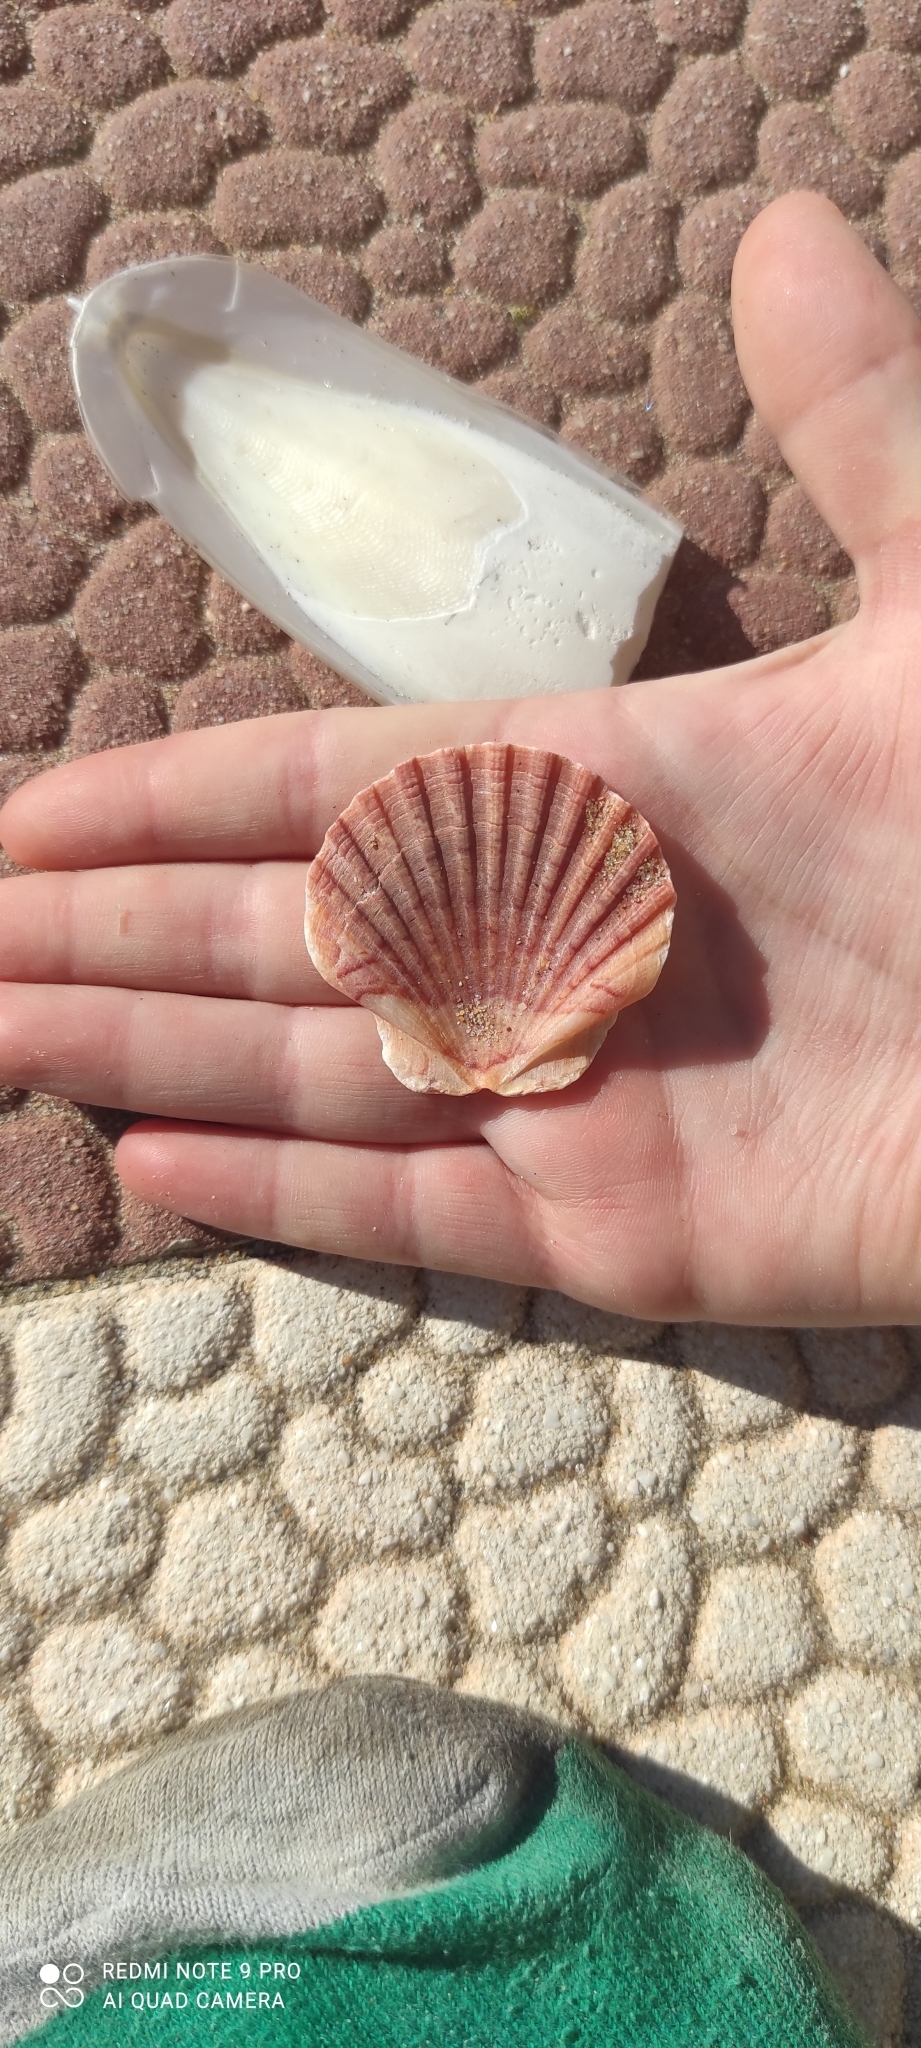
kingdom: Animalia
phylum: Mollusca
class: Bivalvia
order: Pectinida
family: Pectinidae
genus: Pecten
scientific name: Pecten maximus
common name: Great scallop
